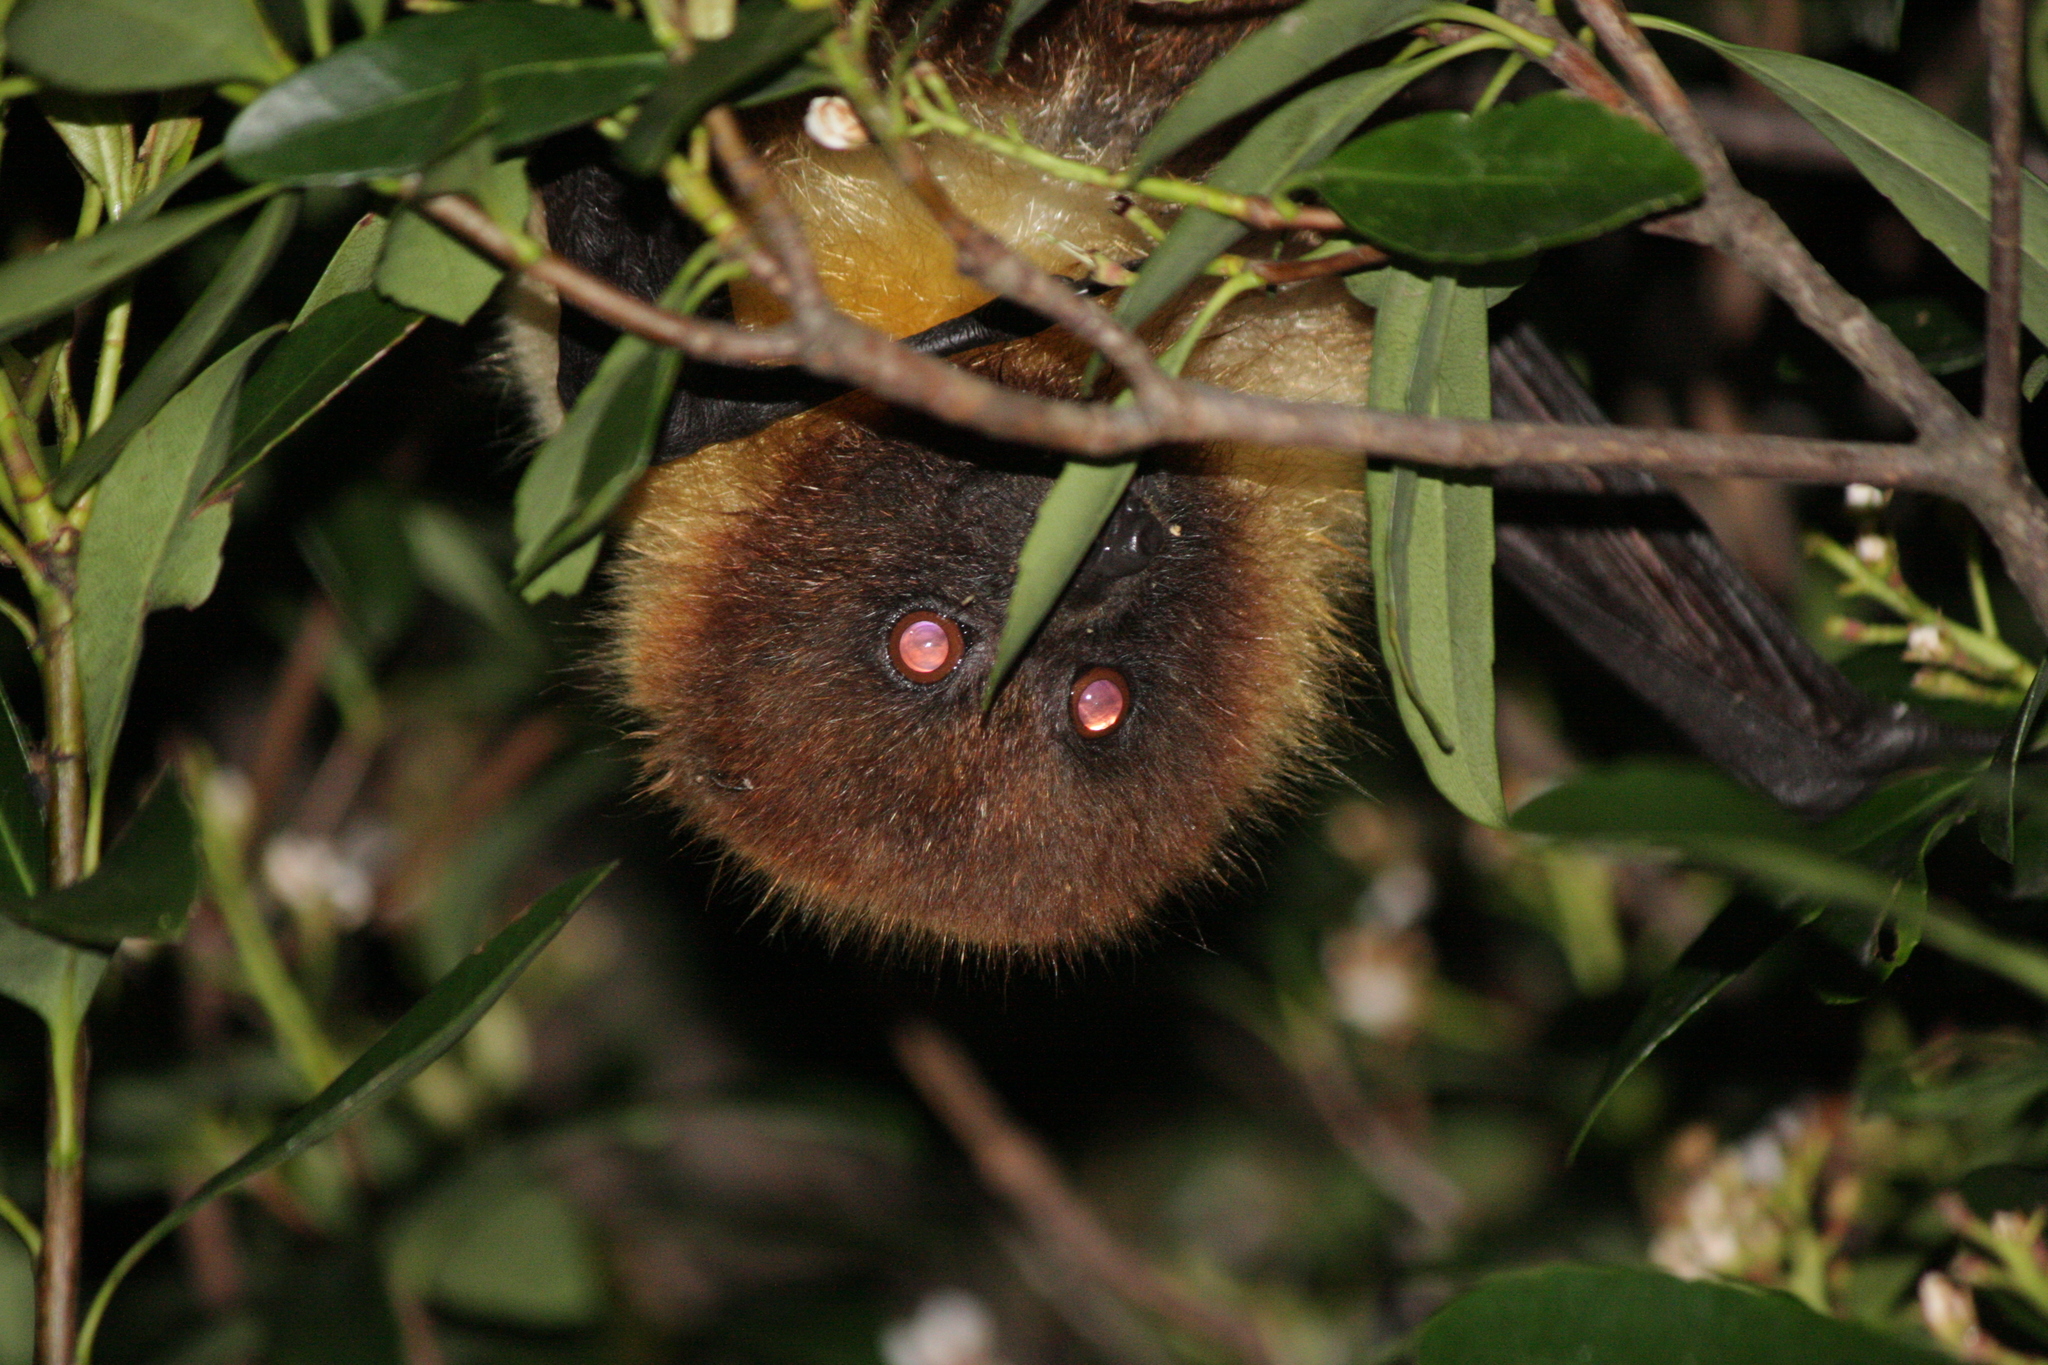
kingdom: Animalia
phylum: Chordata
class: Mammalia
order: Chiroptera
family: Pteropodidae
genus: Pteropus
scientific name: Pteropus dasymallus
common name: Ryukyu flying fox
